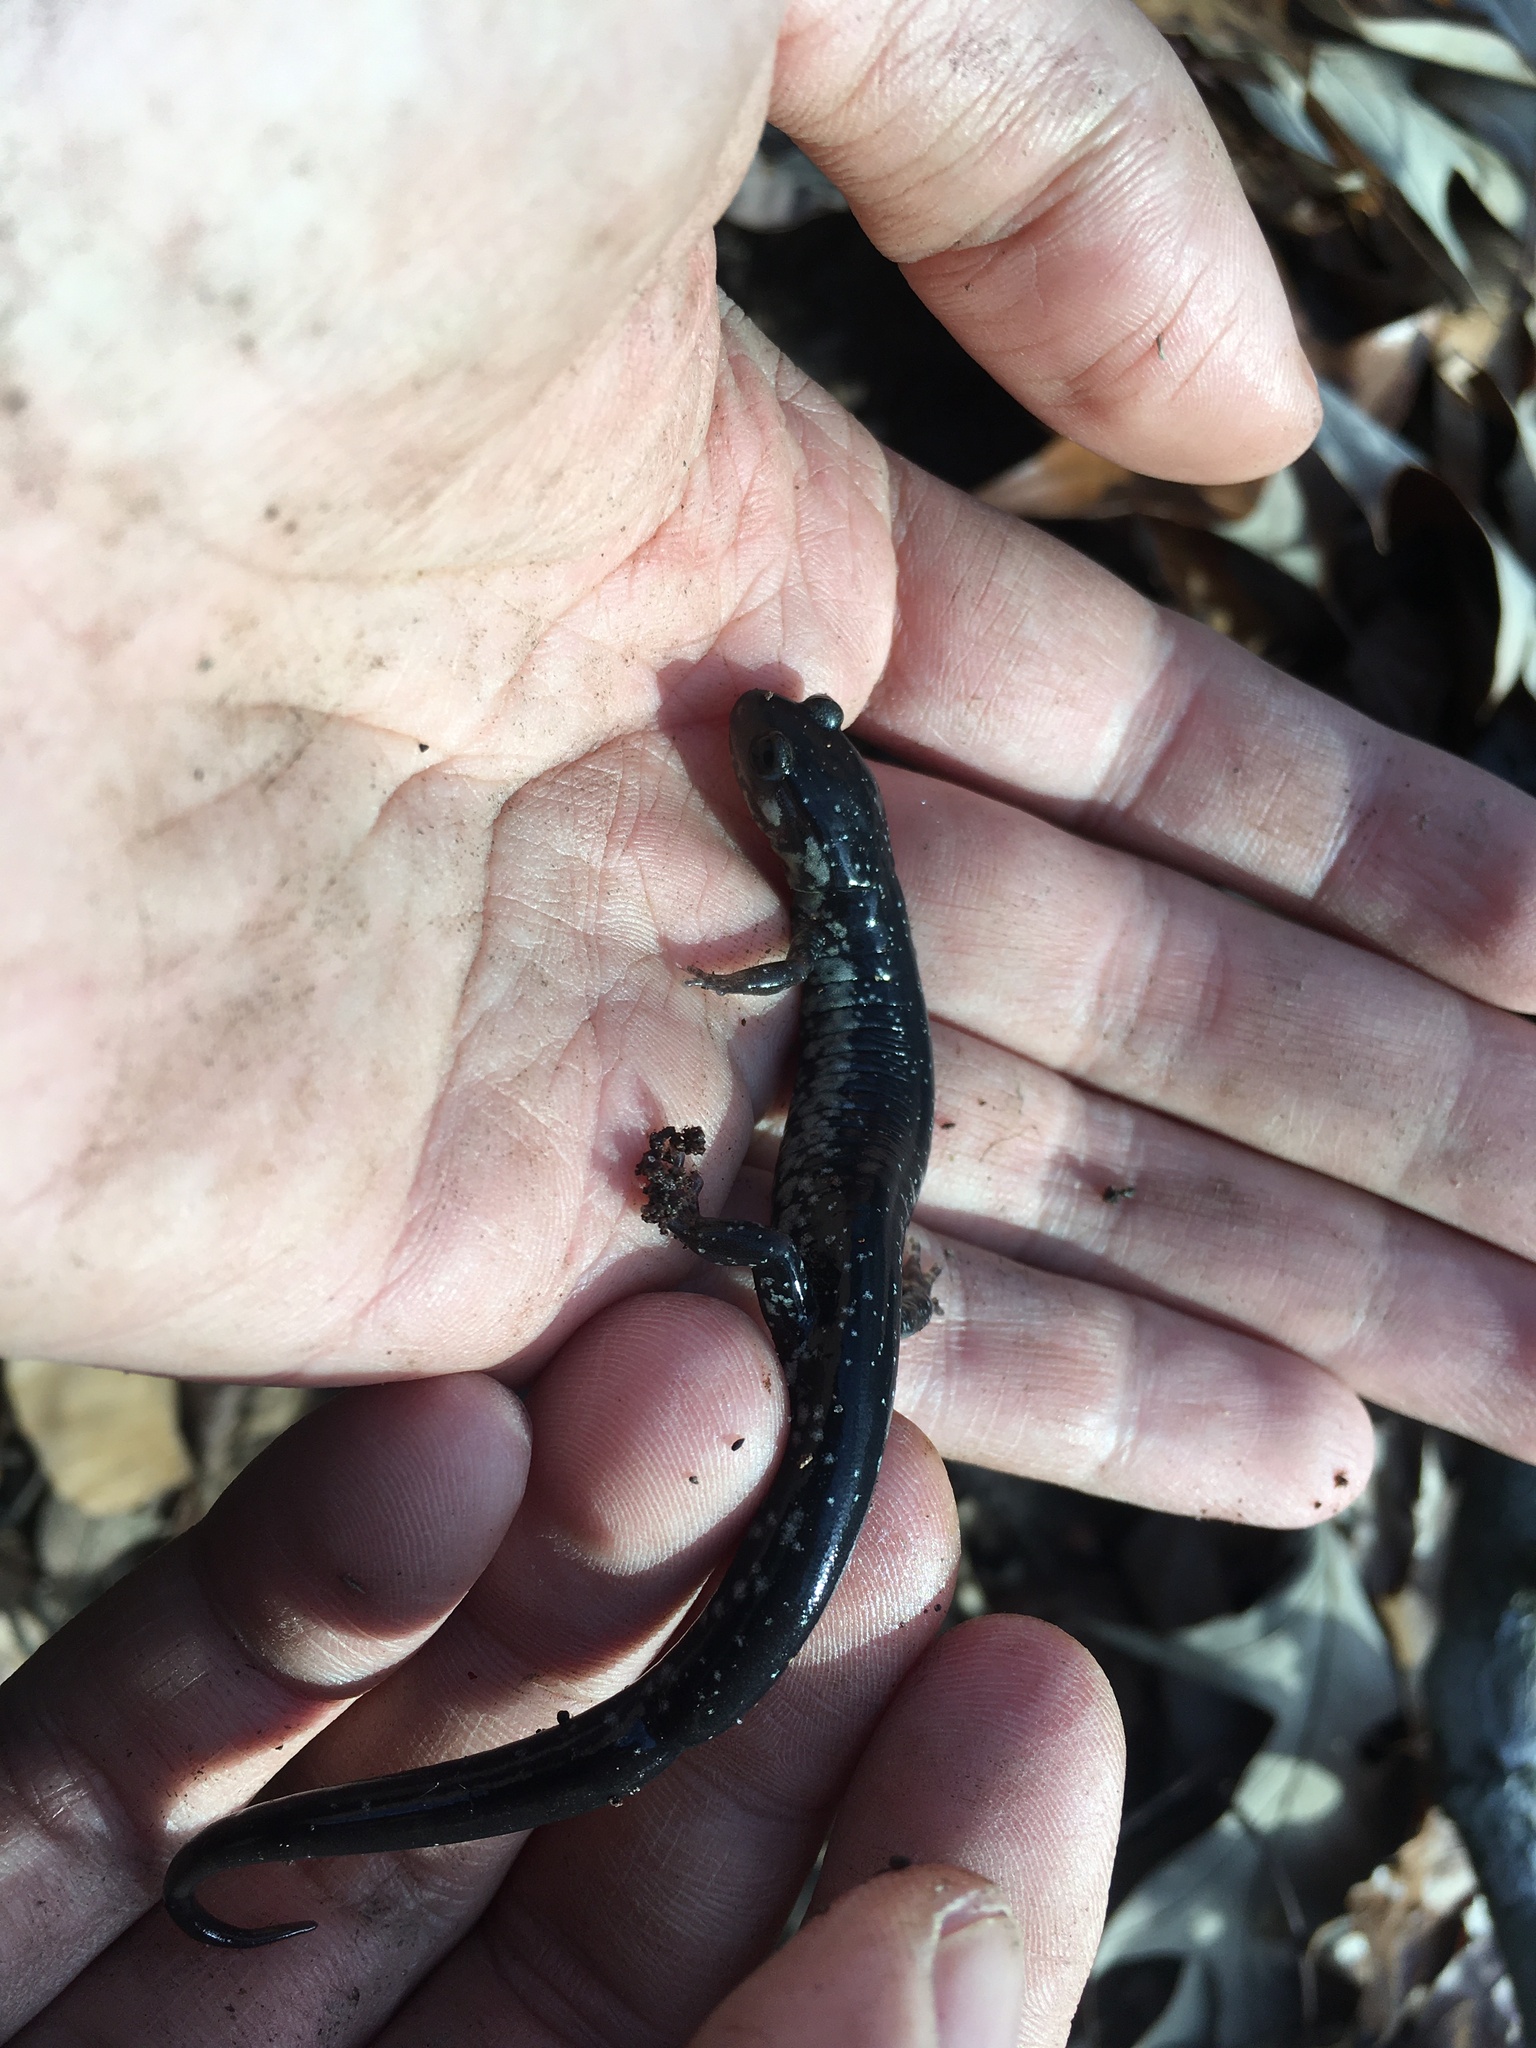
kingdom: Animalia
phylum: Chordata
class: Amphibia
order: Caudata
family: Plethodontidae
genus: Plethodon
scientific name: Plethodon chlorobryonis
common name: Atlantic coast slimy salamander
